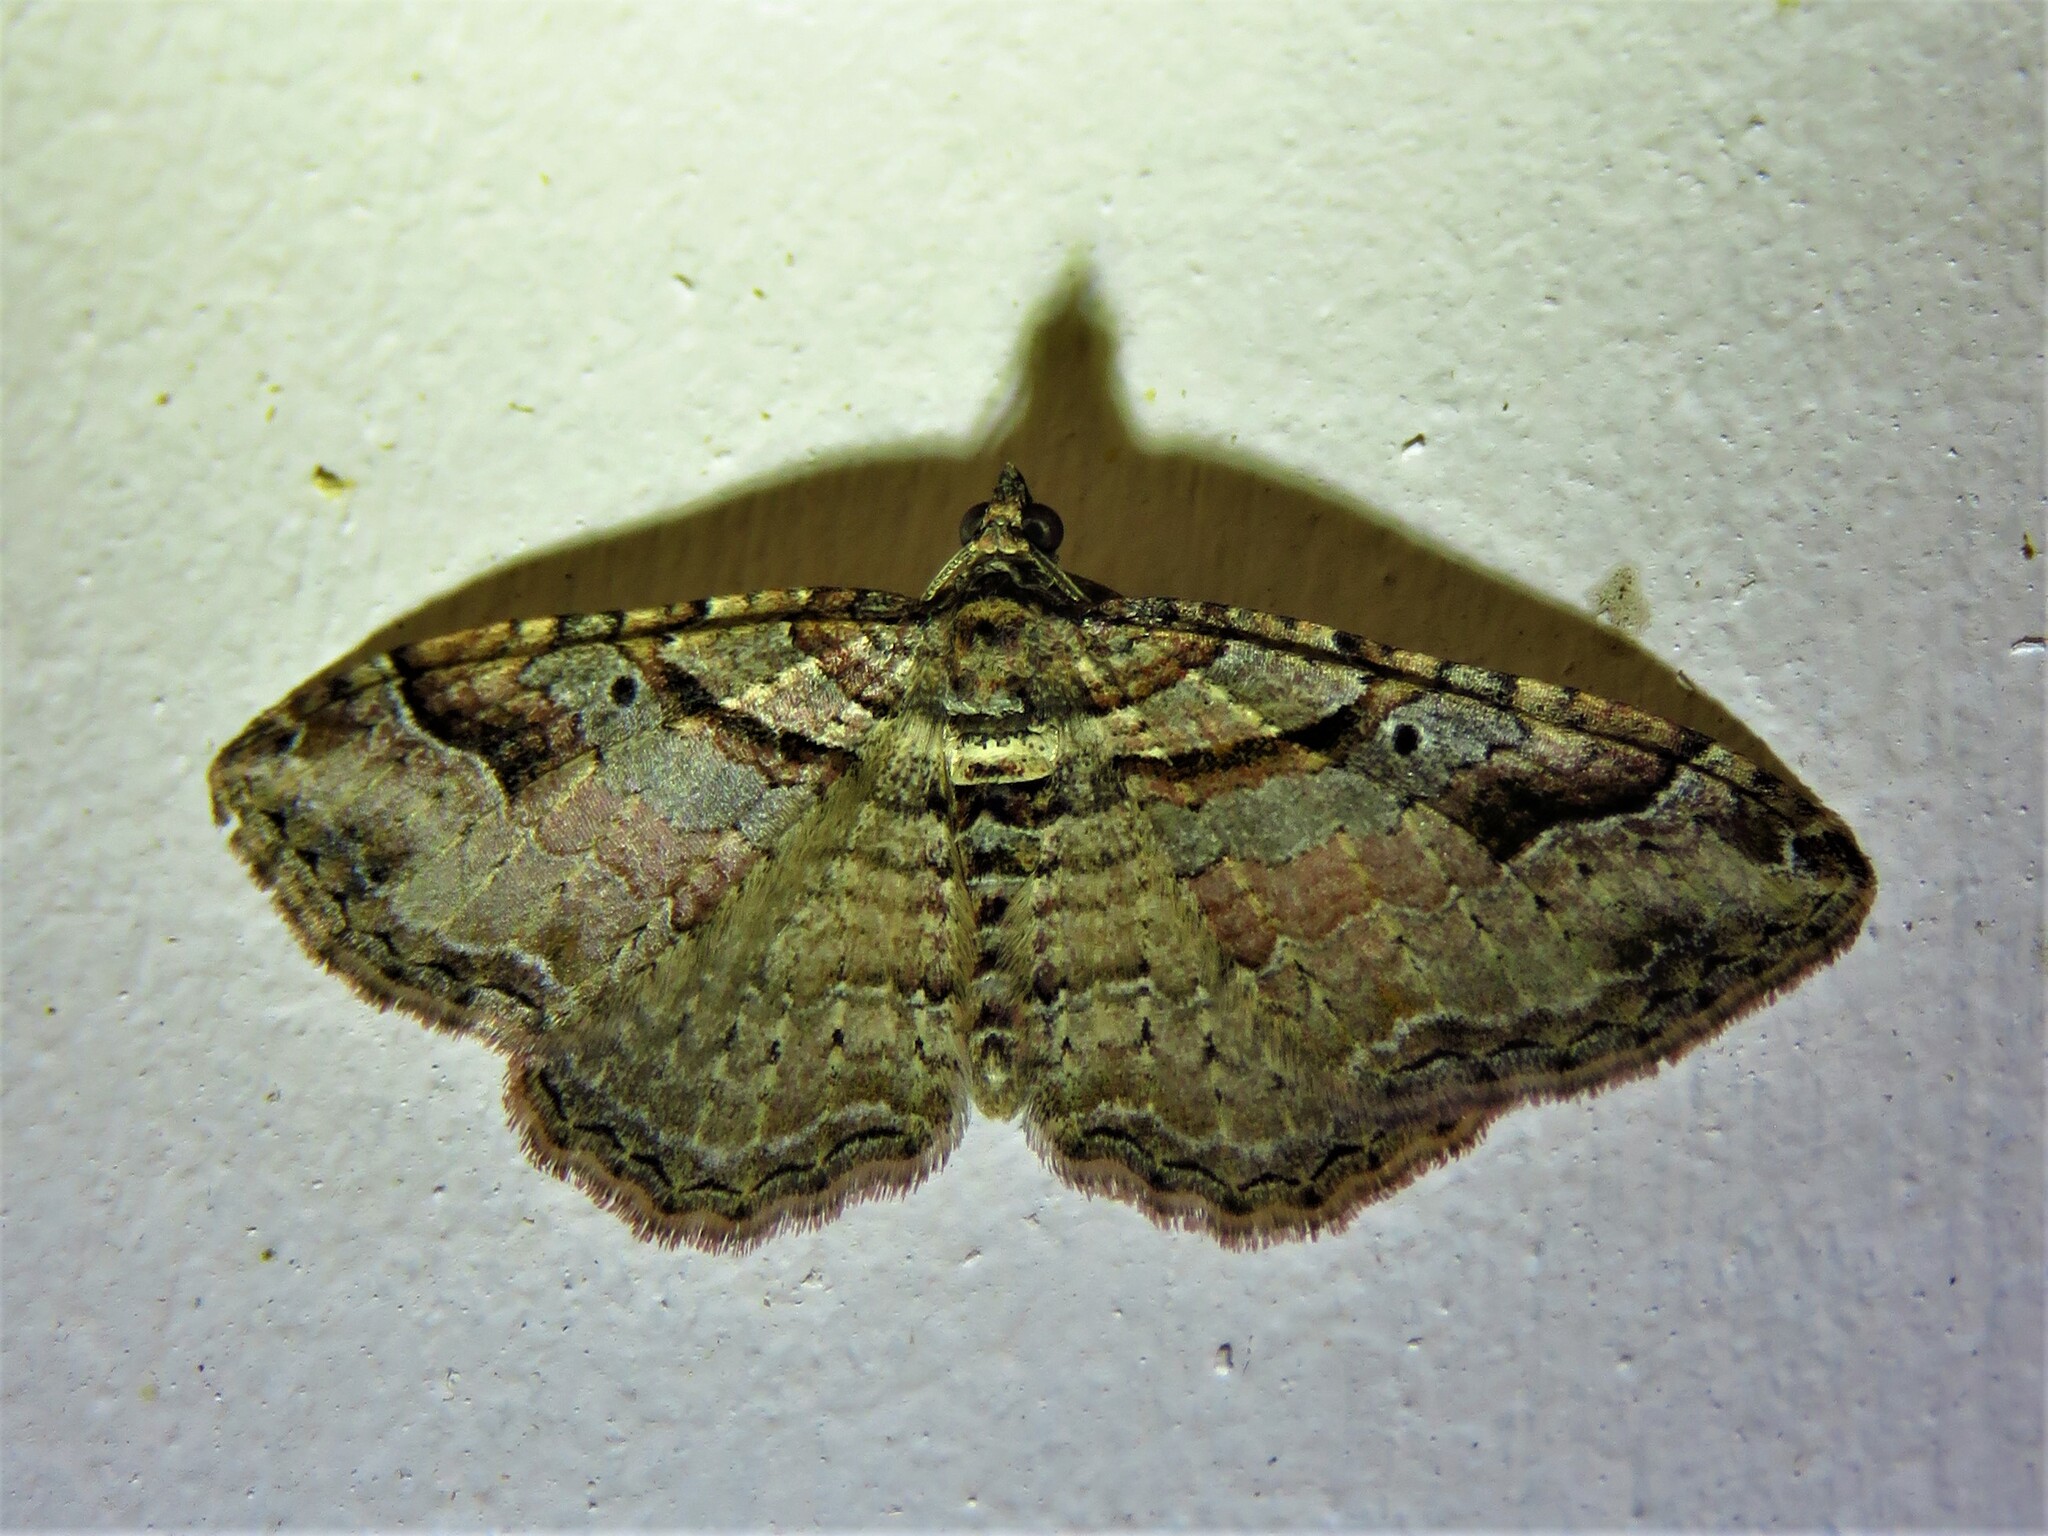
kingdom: Animalia
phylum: Arthropoda
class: Insecta
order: Lepidoptera
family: Geometridae
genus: Costaconvexa
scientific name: Costaconvexa centrostrigaria
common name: Bent-line carpet
